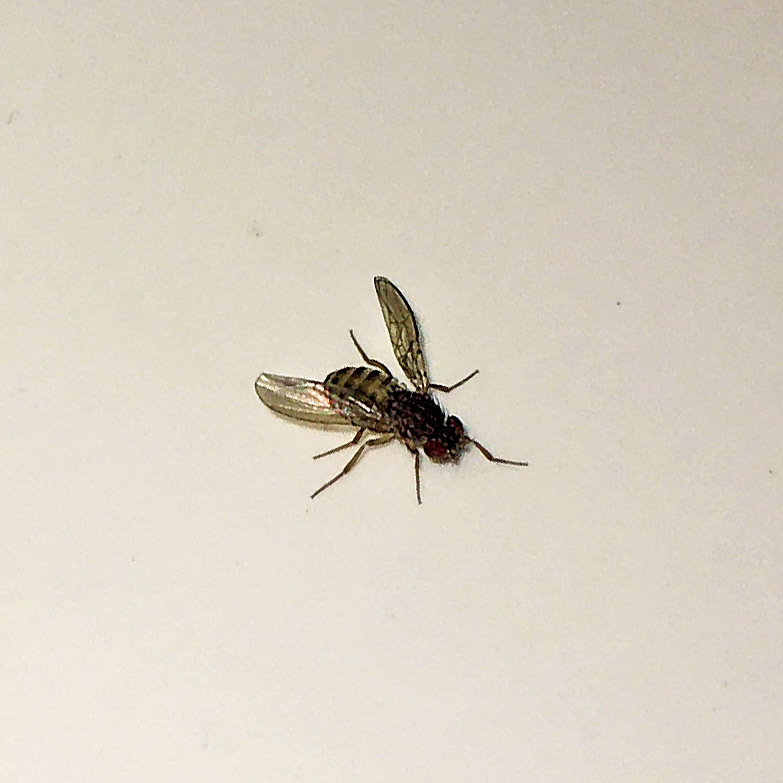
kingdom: Animalia
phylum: Arthropoda
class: Insecta
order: Diptera
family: Drosophilidae
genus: Drosophila
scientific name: Drosophila repleta
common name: Pomace fly
